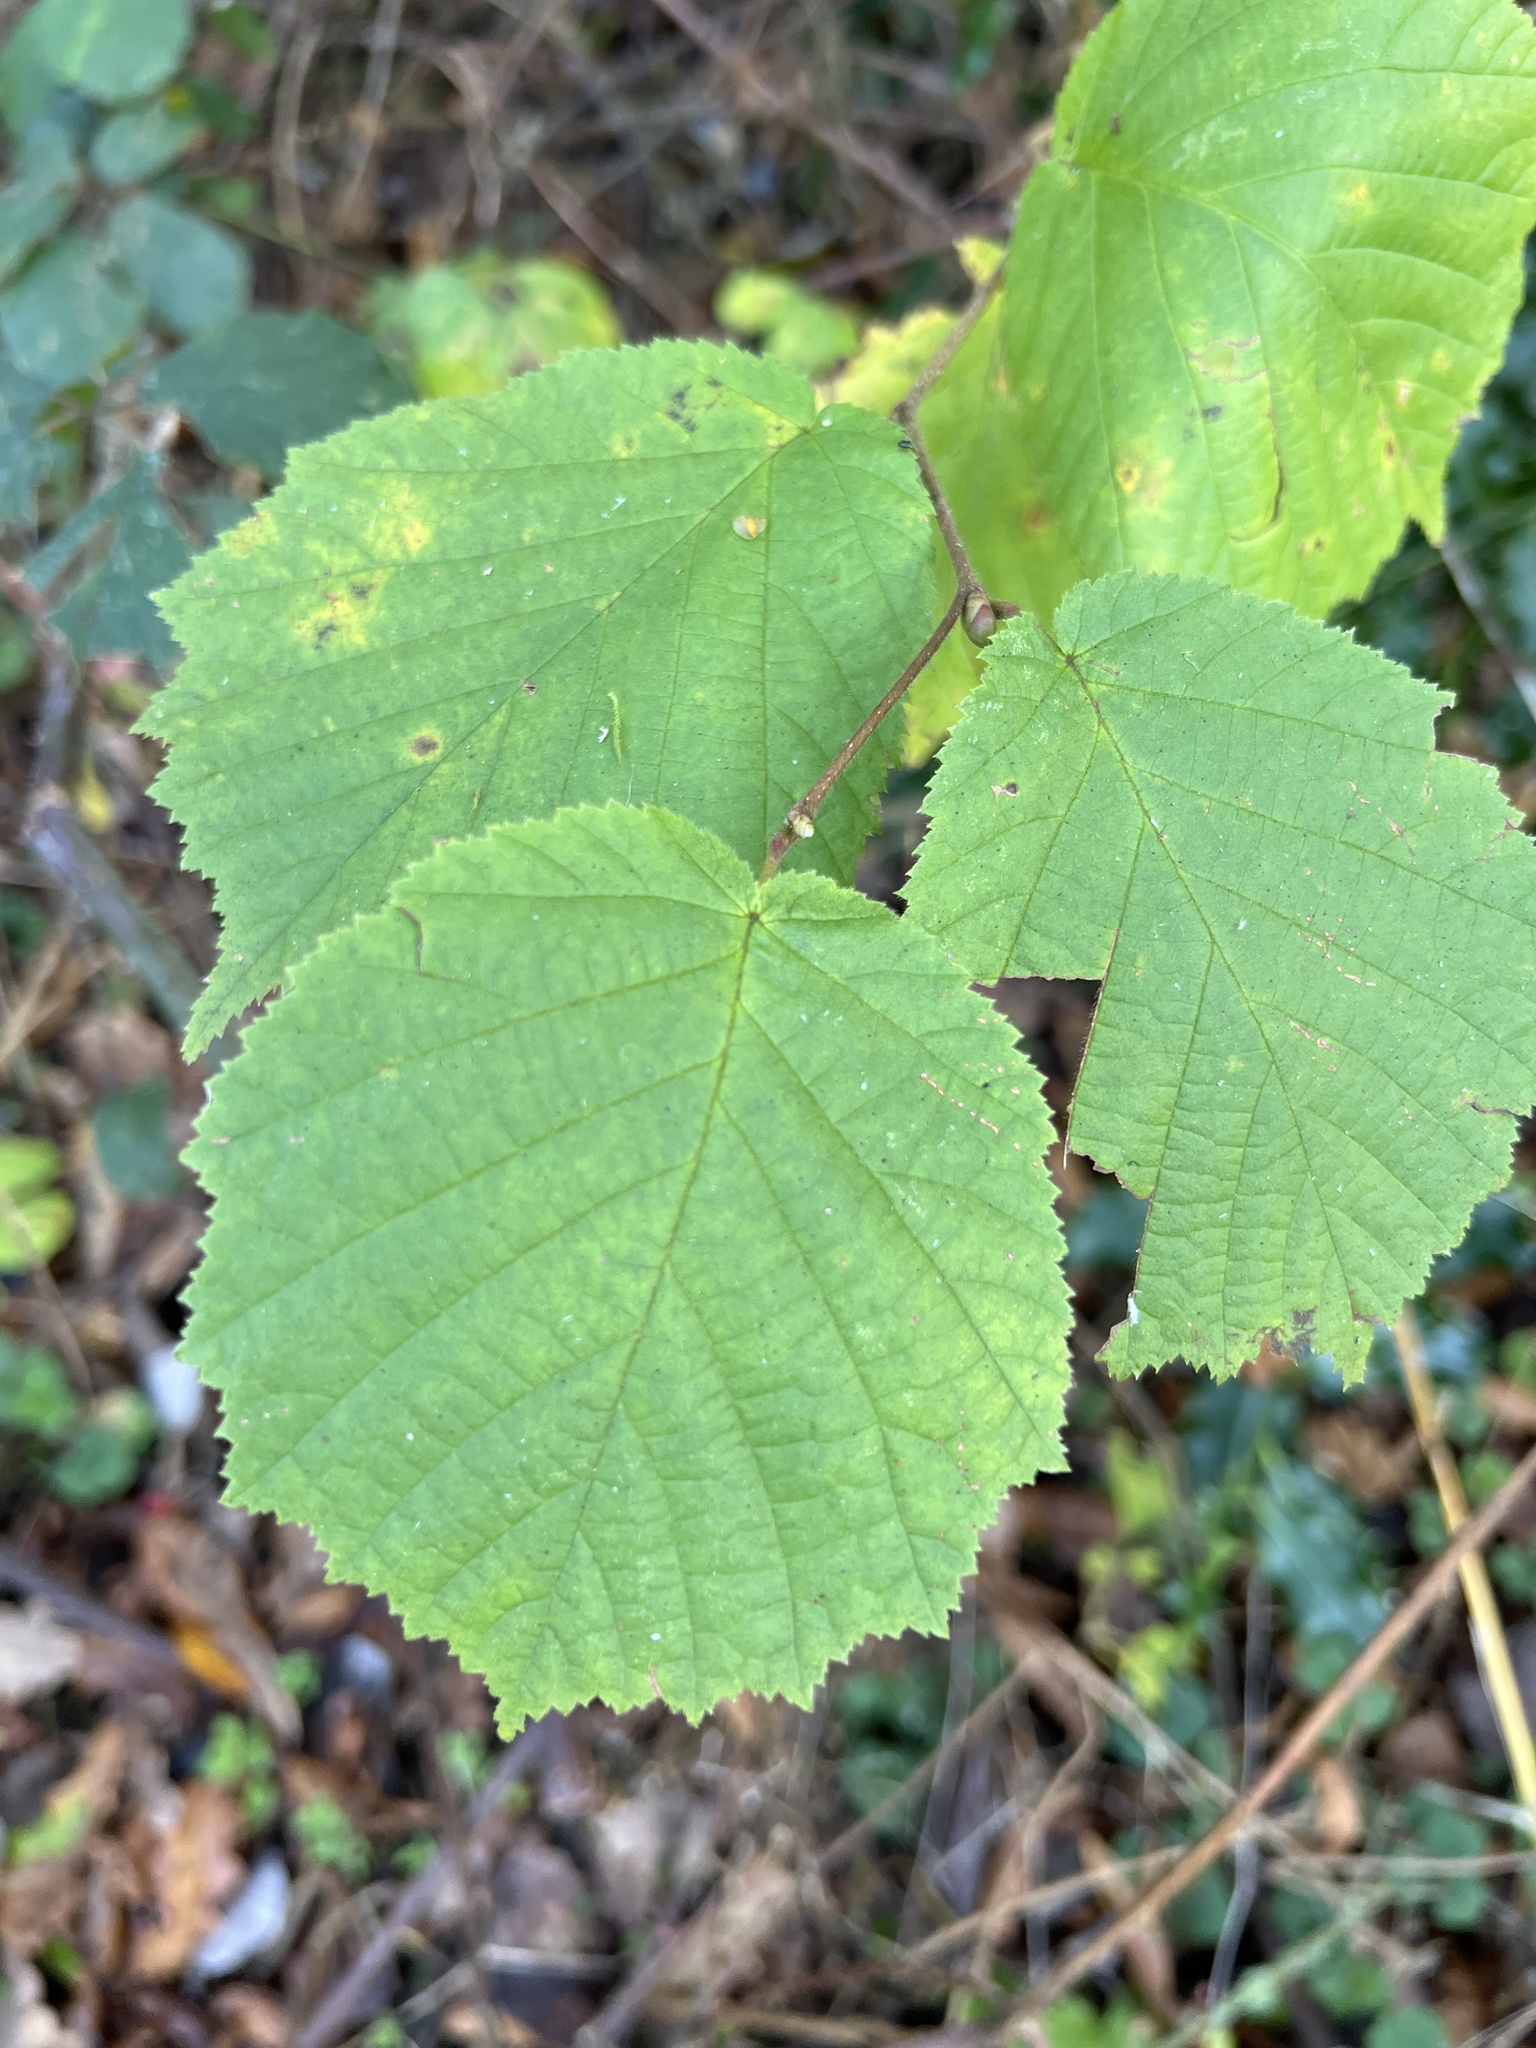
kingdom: Plantae
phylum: Tracheophyta
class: Magnoliopsida
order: Fagales
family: Betulaceae
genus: Corylus
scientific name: Corylus avellana
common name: European hazel
